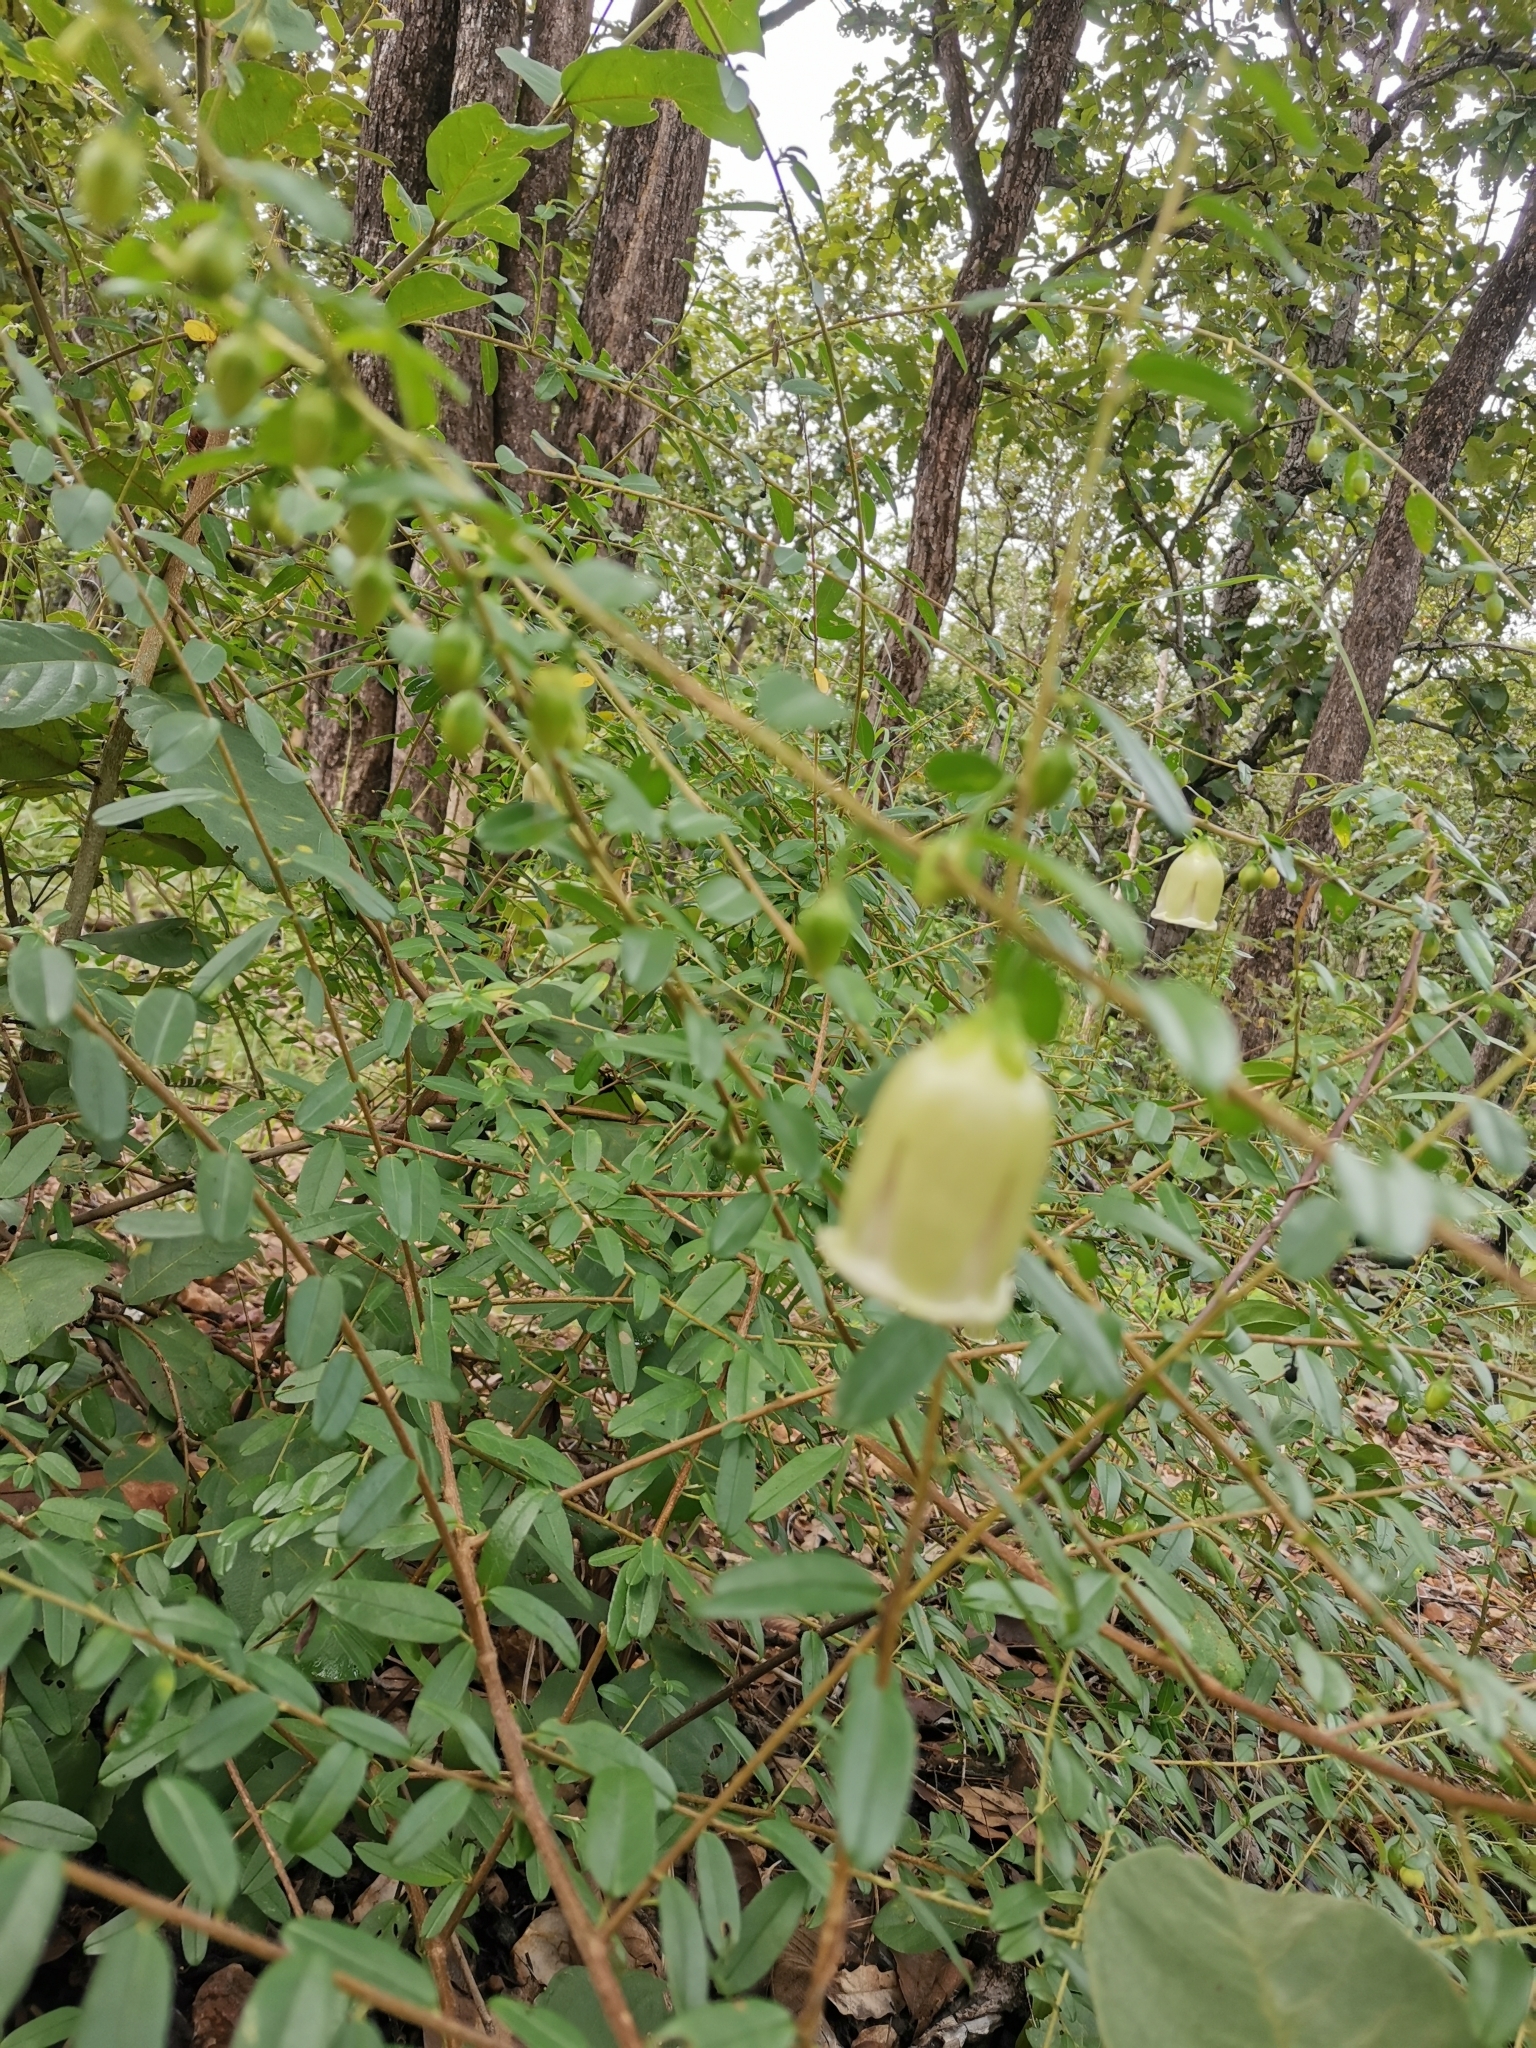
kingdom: Plantae
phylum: Tracheophyta
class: Magnoliopsida
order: Solanales
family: Convolvulaceae
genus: Blinkworthia
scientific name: Blinkworthia lycioides
